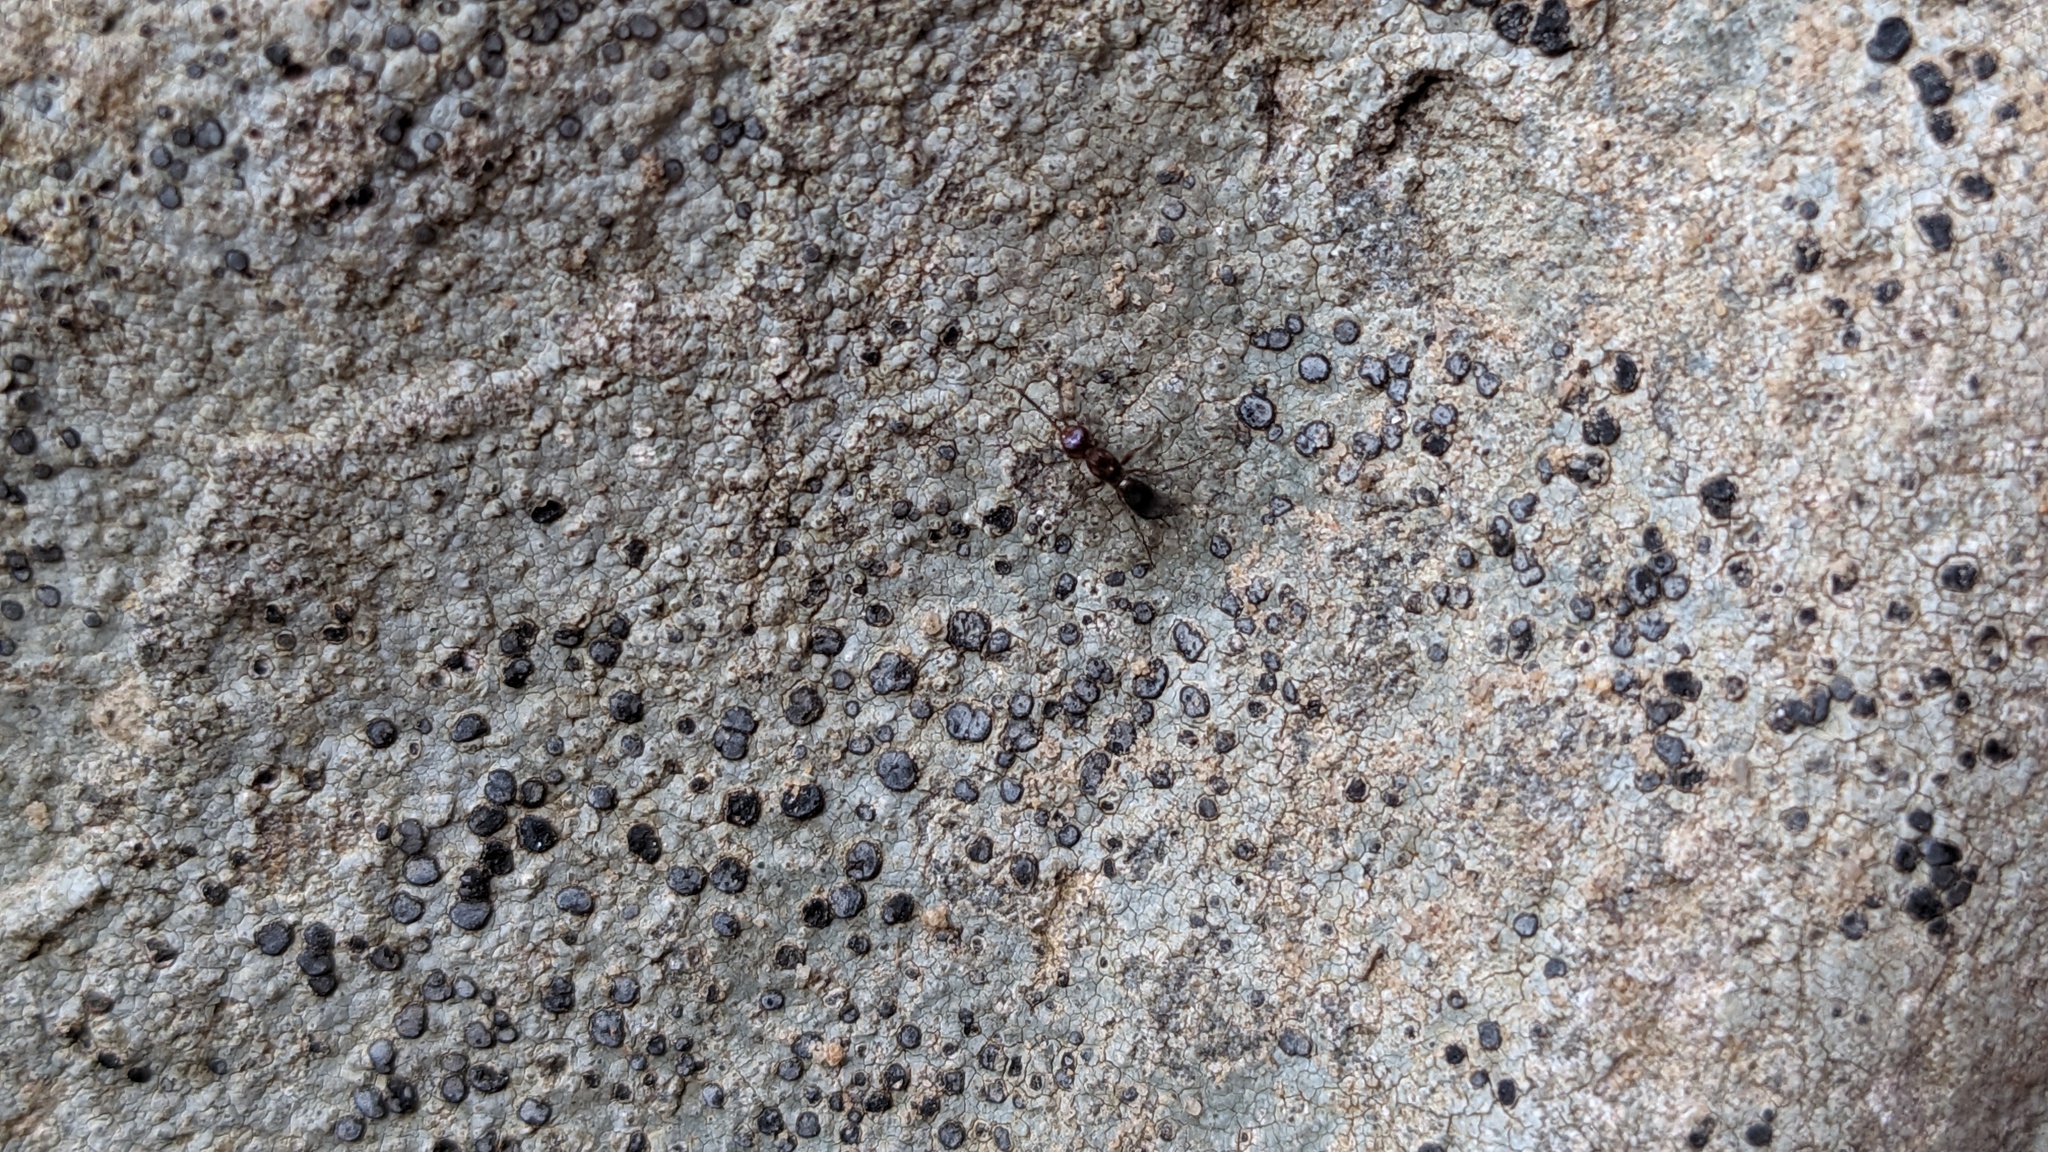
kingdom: Fungi
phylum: Ascomycota
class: Lecanoromycetes
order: Lecideales
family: Lecideaceae
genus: Porpidia
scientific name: Porpidia albocaerulescens
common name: Smokey-eyed boulder lichen
